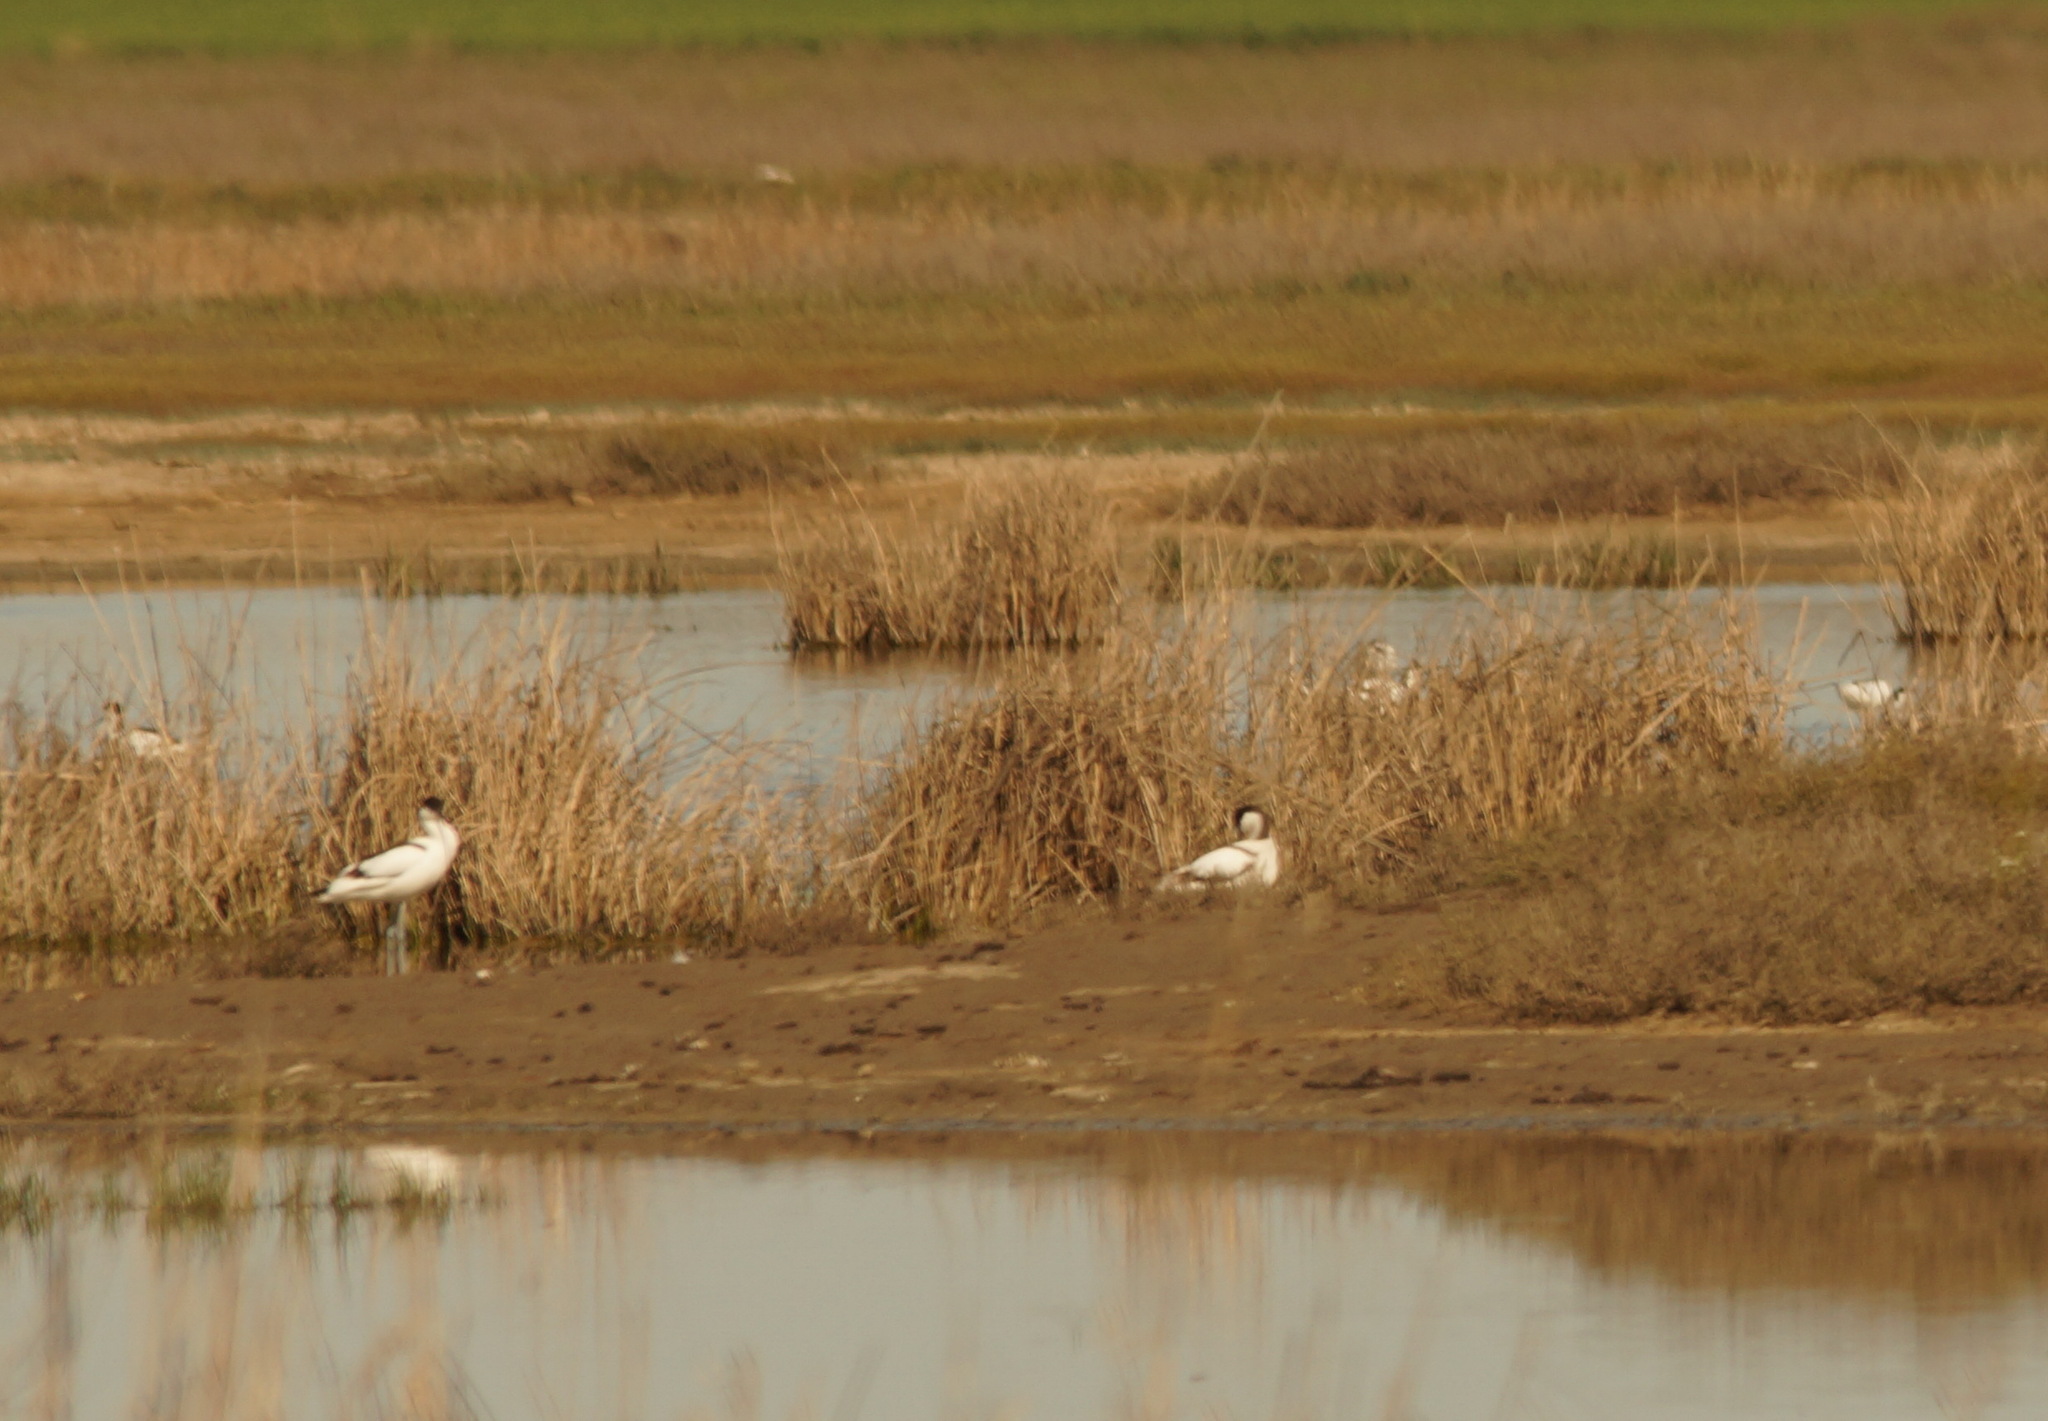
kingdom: Animalia
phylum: Chordata
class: Aves
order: Charadriiformes
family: Recurvirostridae
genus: Recurvirostra
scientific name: Recurvirostra avosetta
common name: Pied avocet
